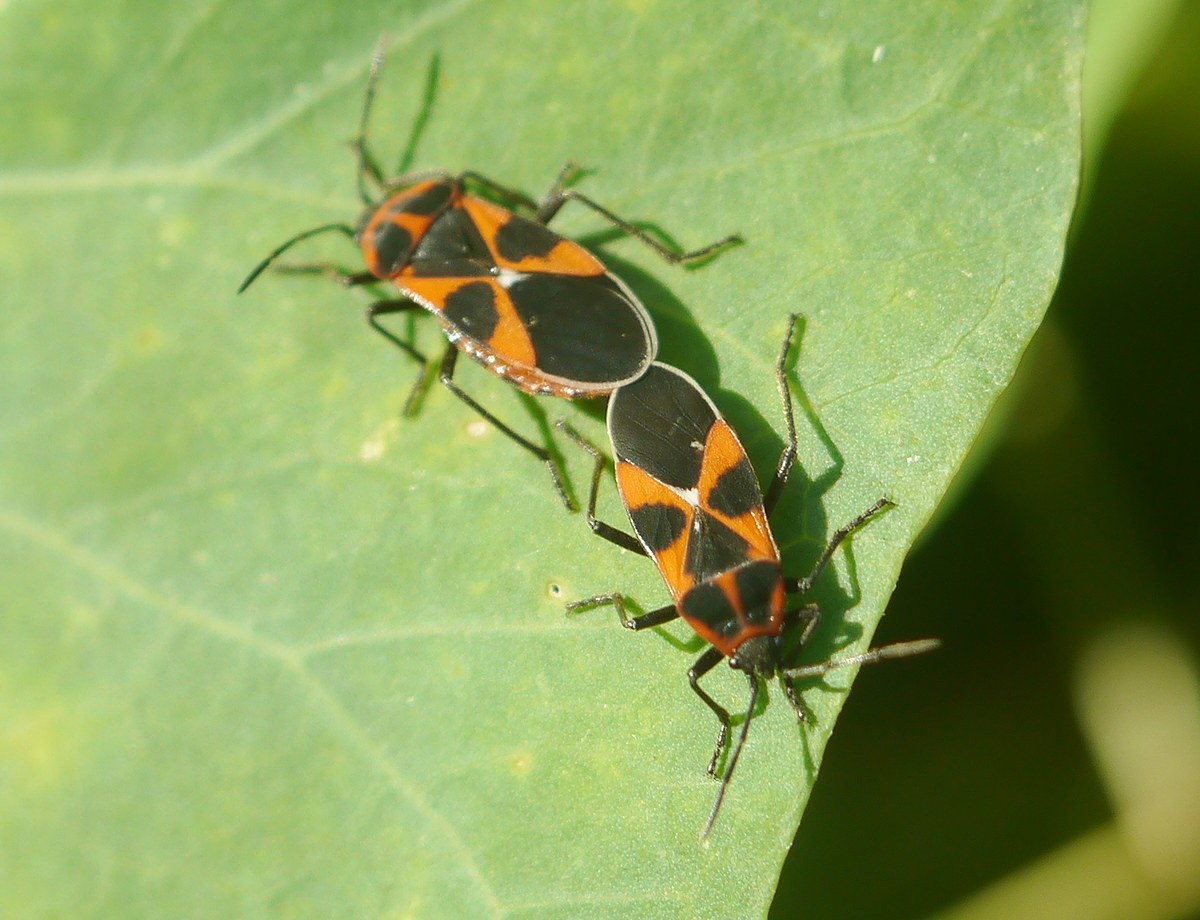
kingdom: Animalia
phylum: Arthropoda
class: Insecta
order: Hemiptera
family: Lygaeidae
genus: Tropidothorax
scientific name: Tropidothorax leucopterus
